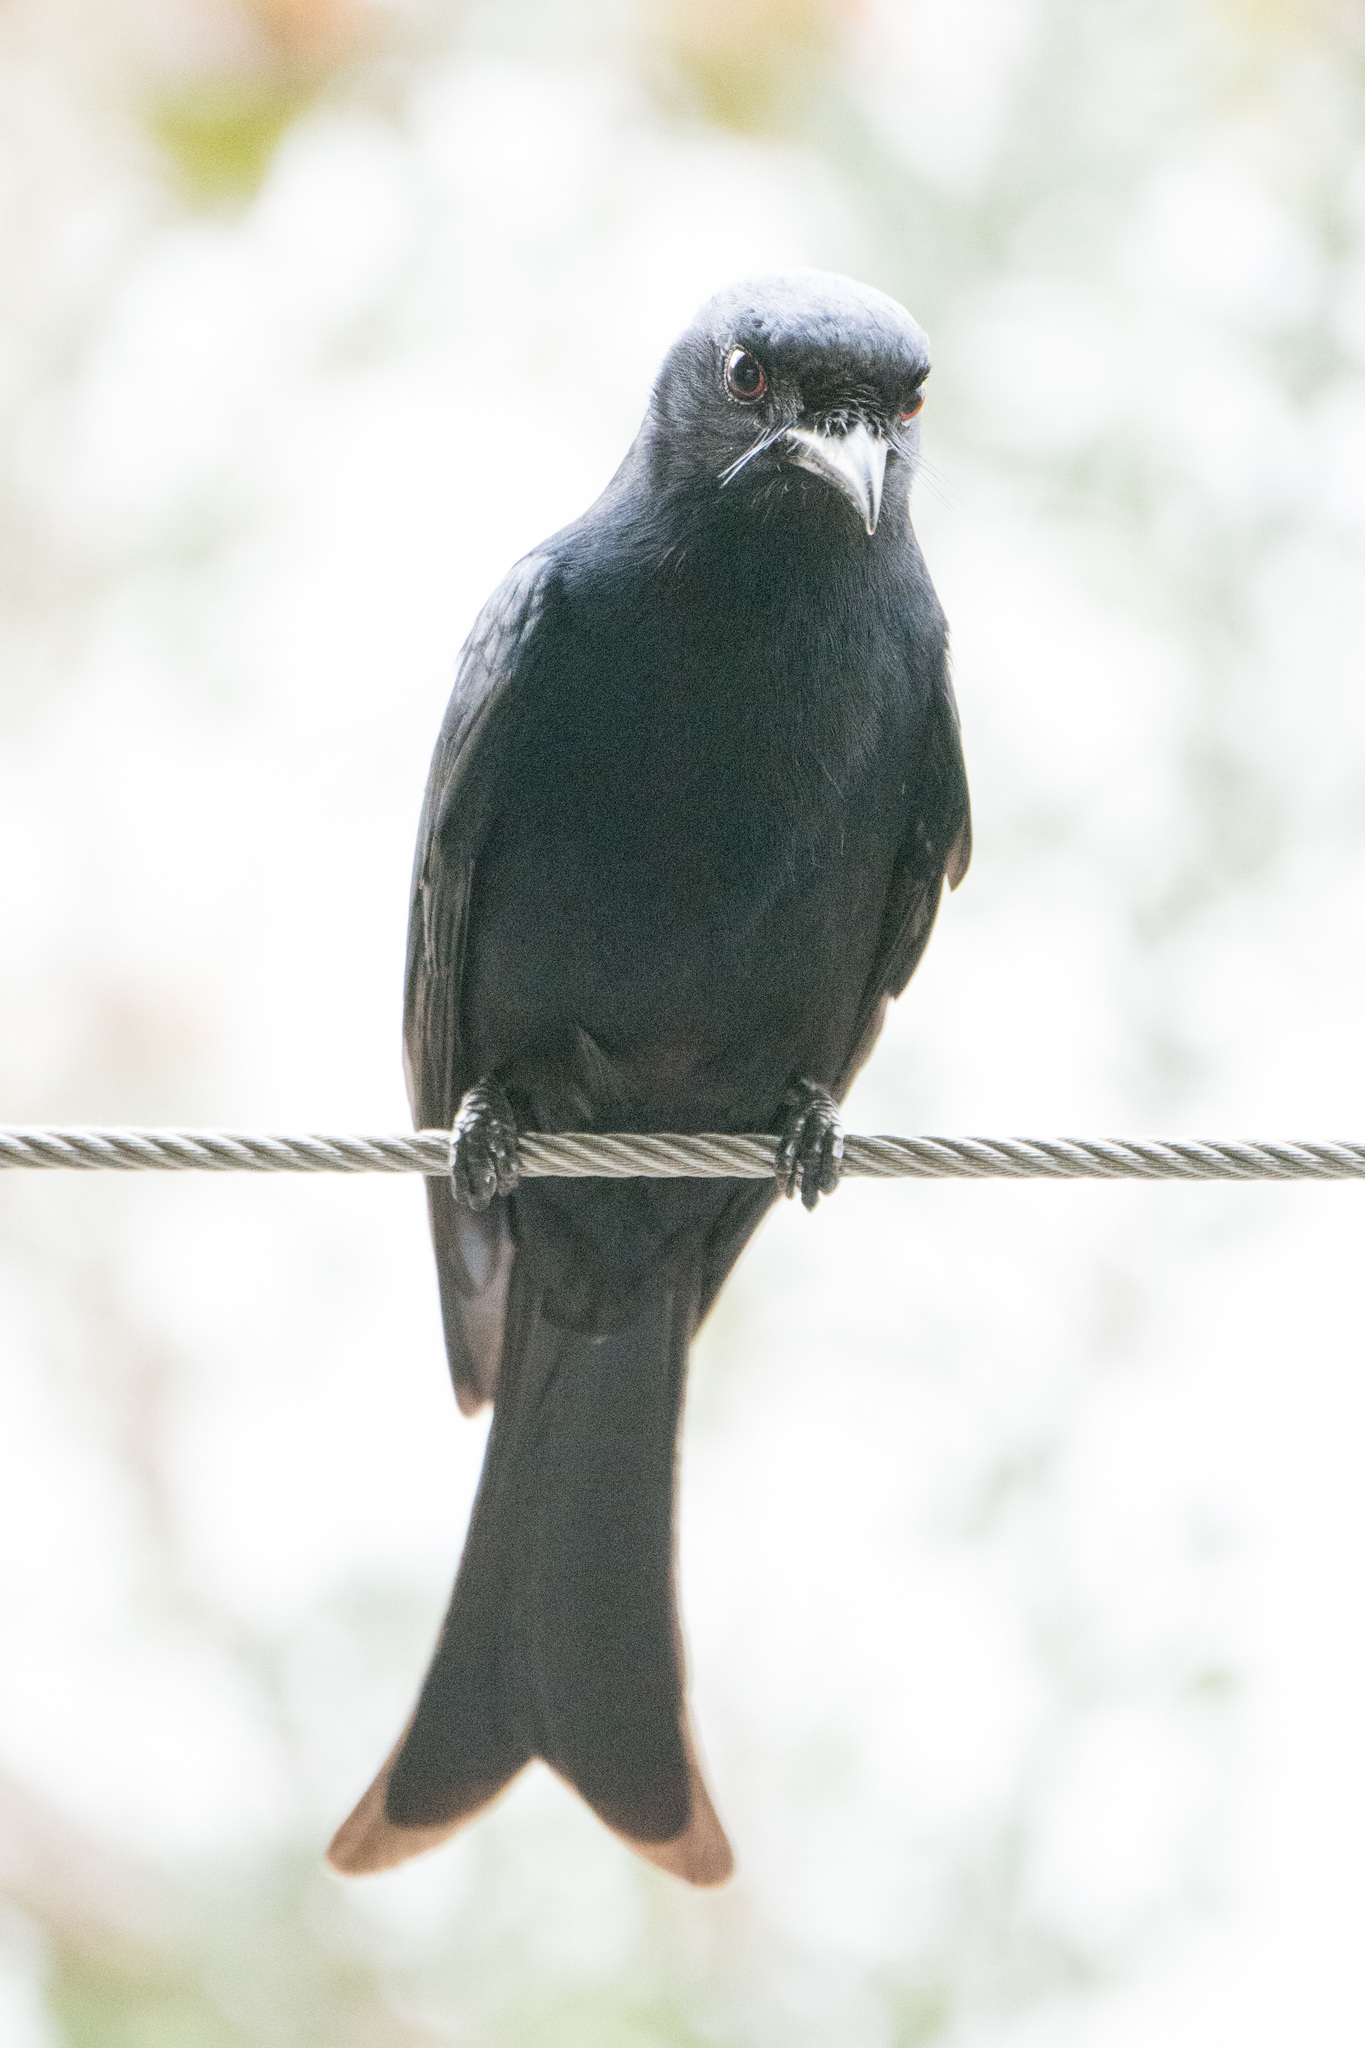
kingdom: Animalia
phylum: Chordata
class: Aves
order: Passeriformes
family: Dicruridae
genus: Dicrurus
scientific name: Dicrurus adsimilis
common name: Fork-tailed drongo
